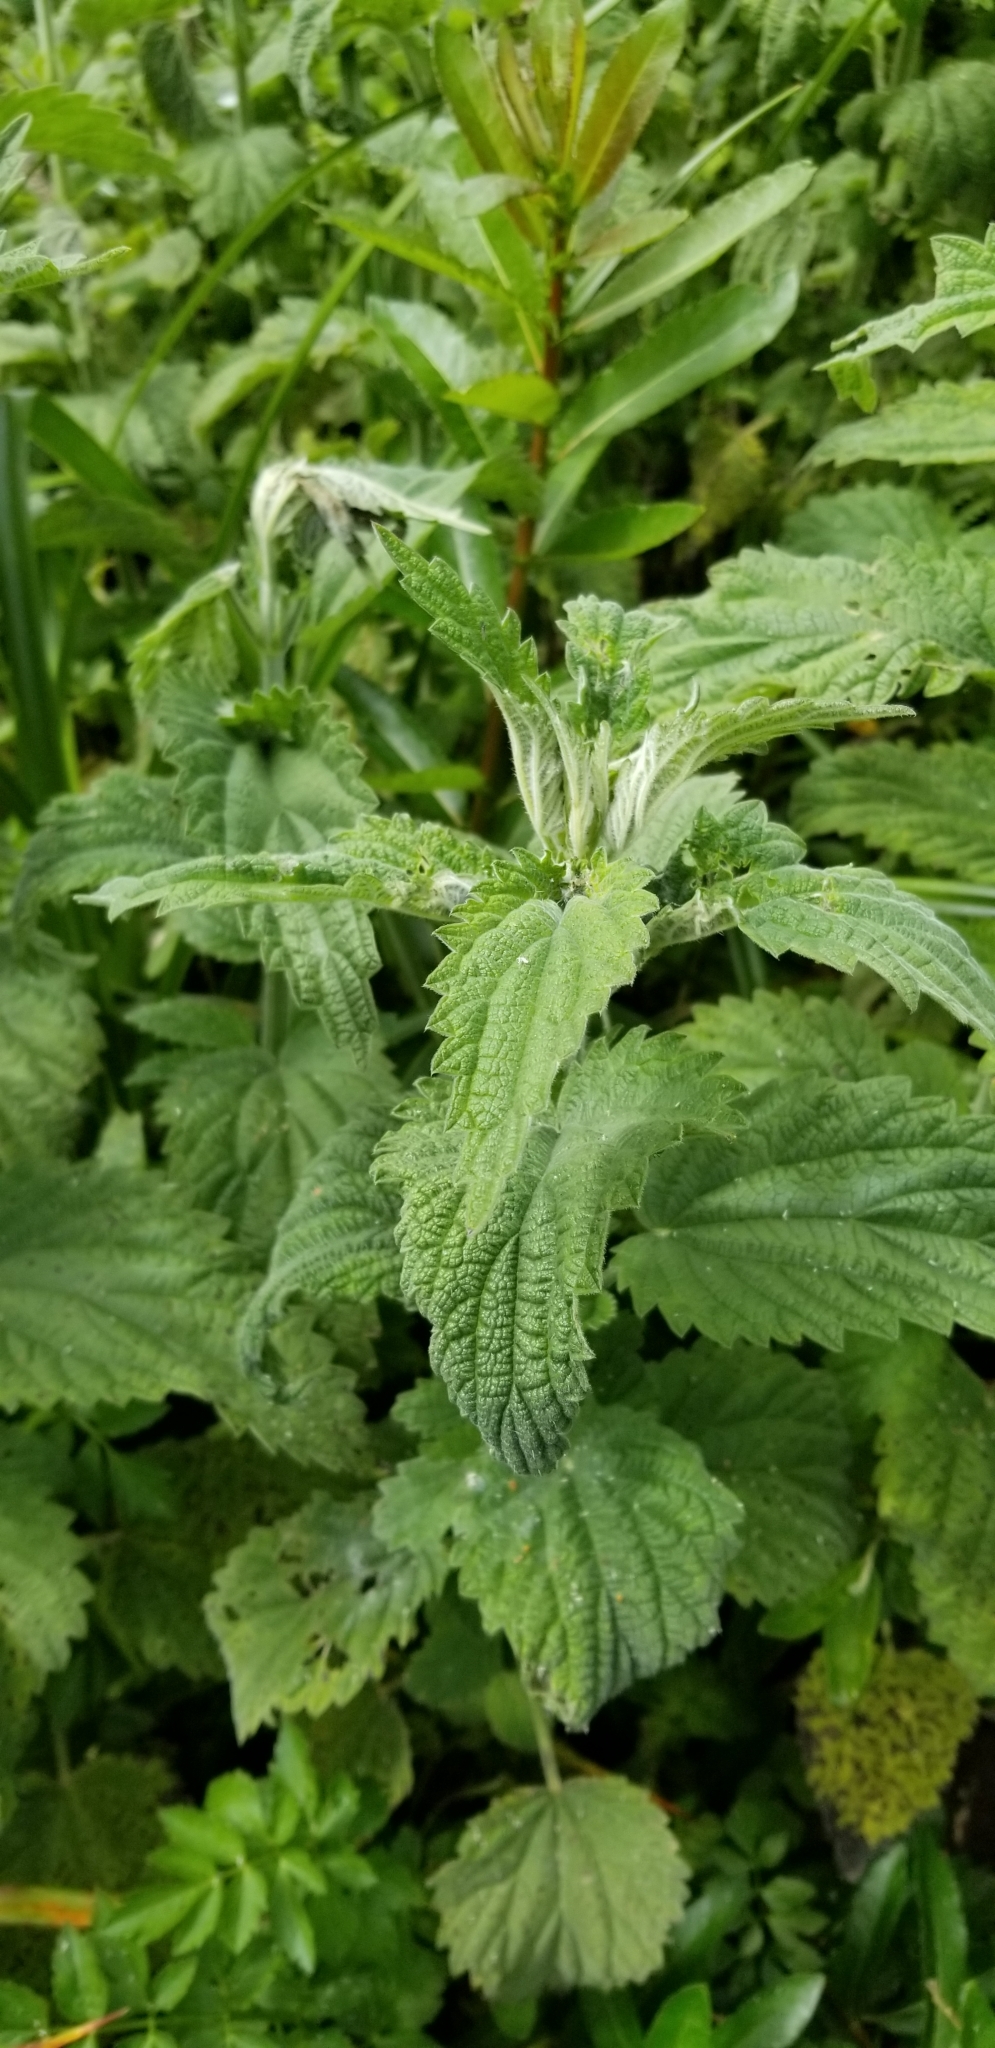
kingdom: Plantae
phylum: Tracheophyta
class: Magnoliopsida
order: Rosales
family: Urticaceae
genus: Urtica
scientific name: Urtica dioica
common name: Common nettle
